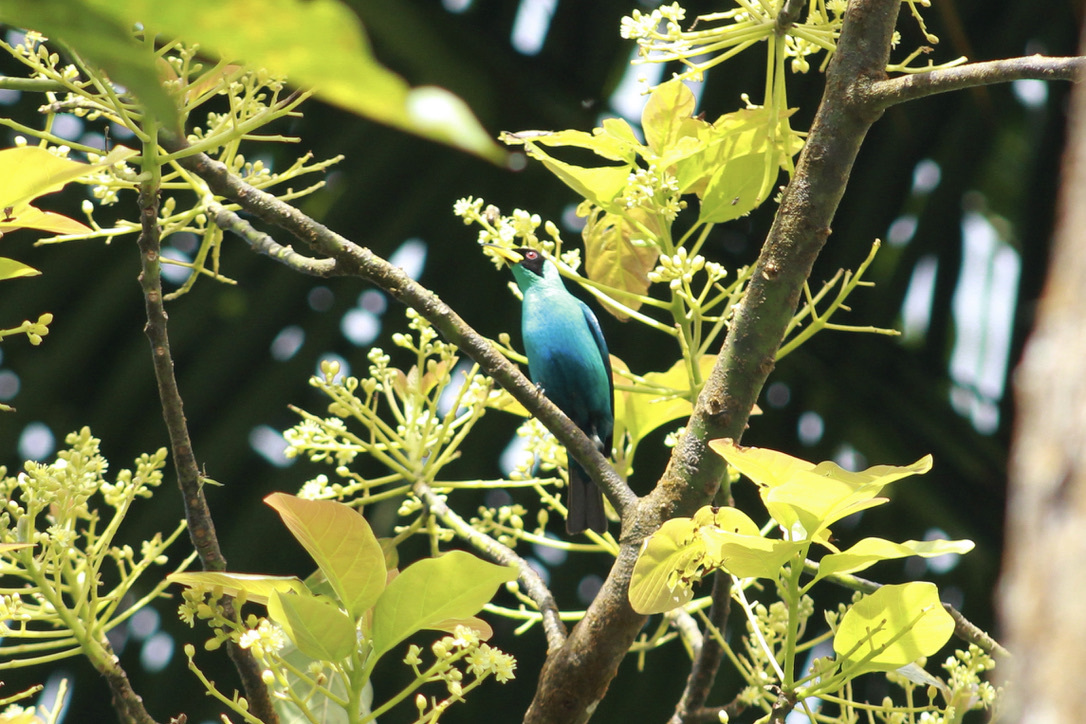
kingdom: Animalia
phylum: Chordata
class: Aves
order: Passeriformes
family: Thraupidae
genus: Chlorophanes
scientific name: Chlorophanes spiza
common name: Green honeycreeper
